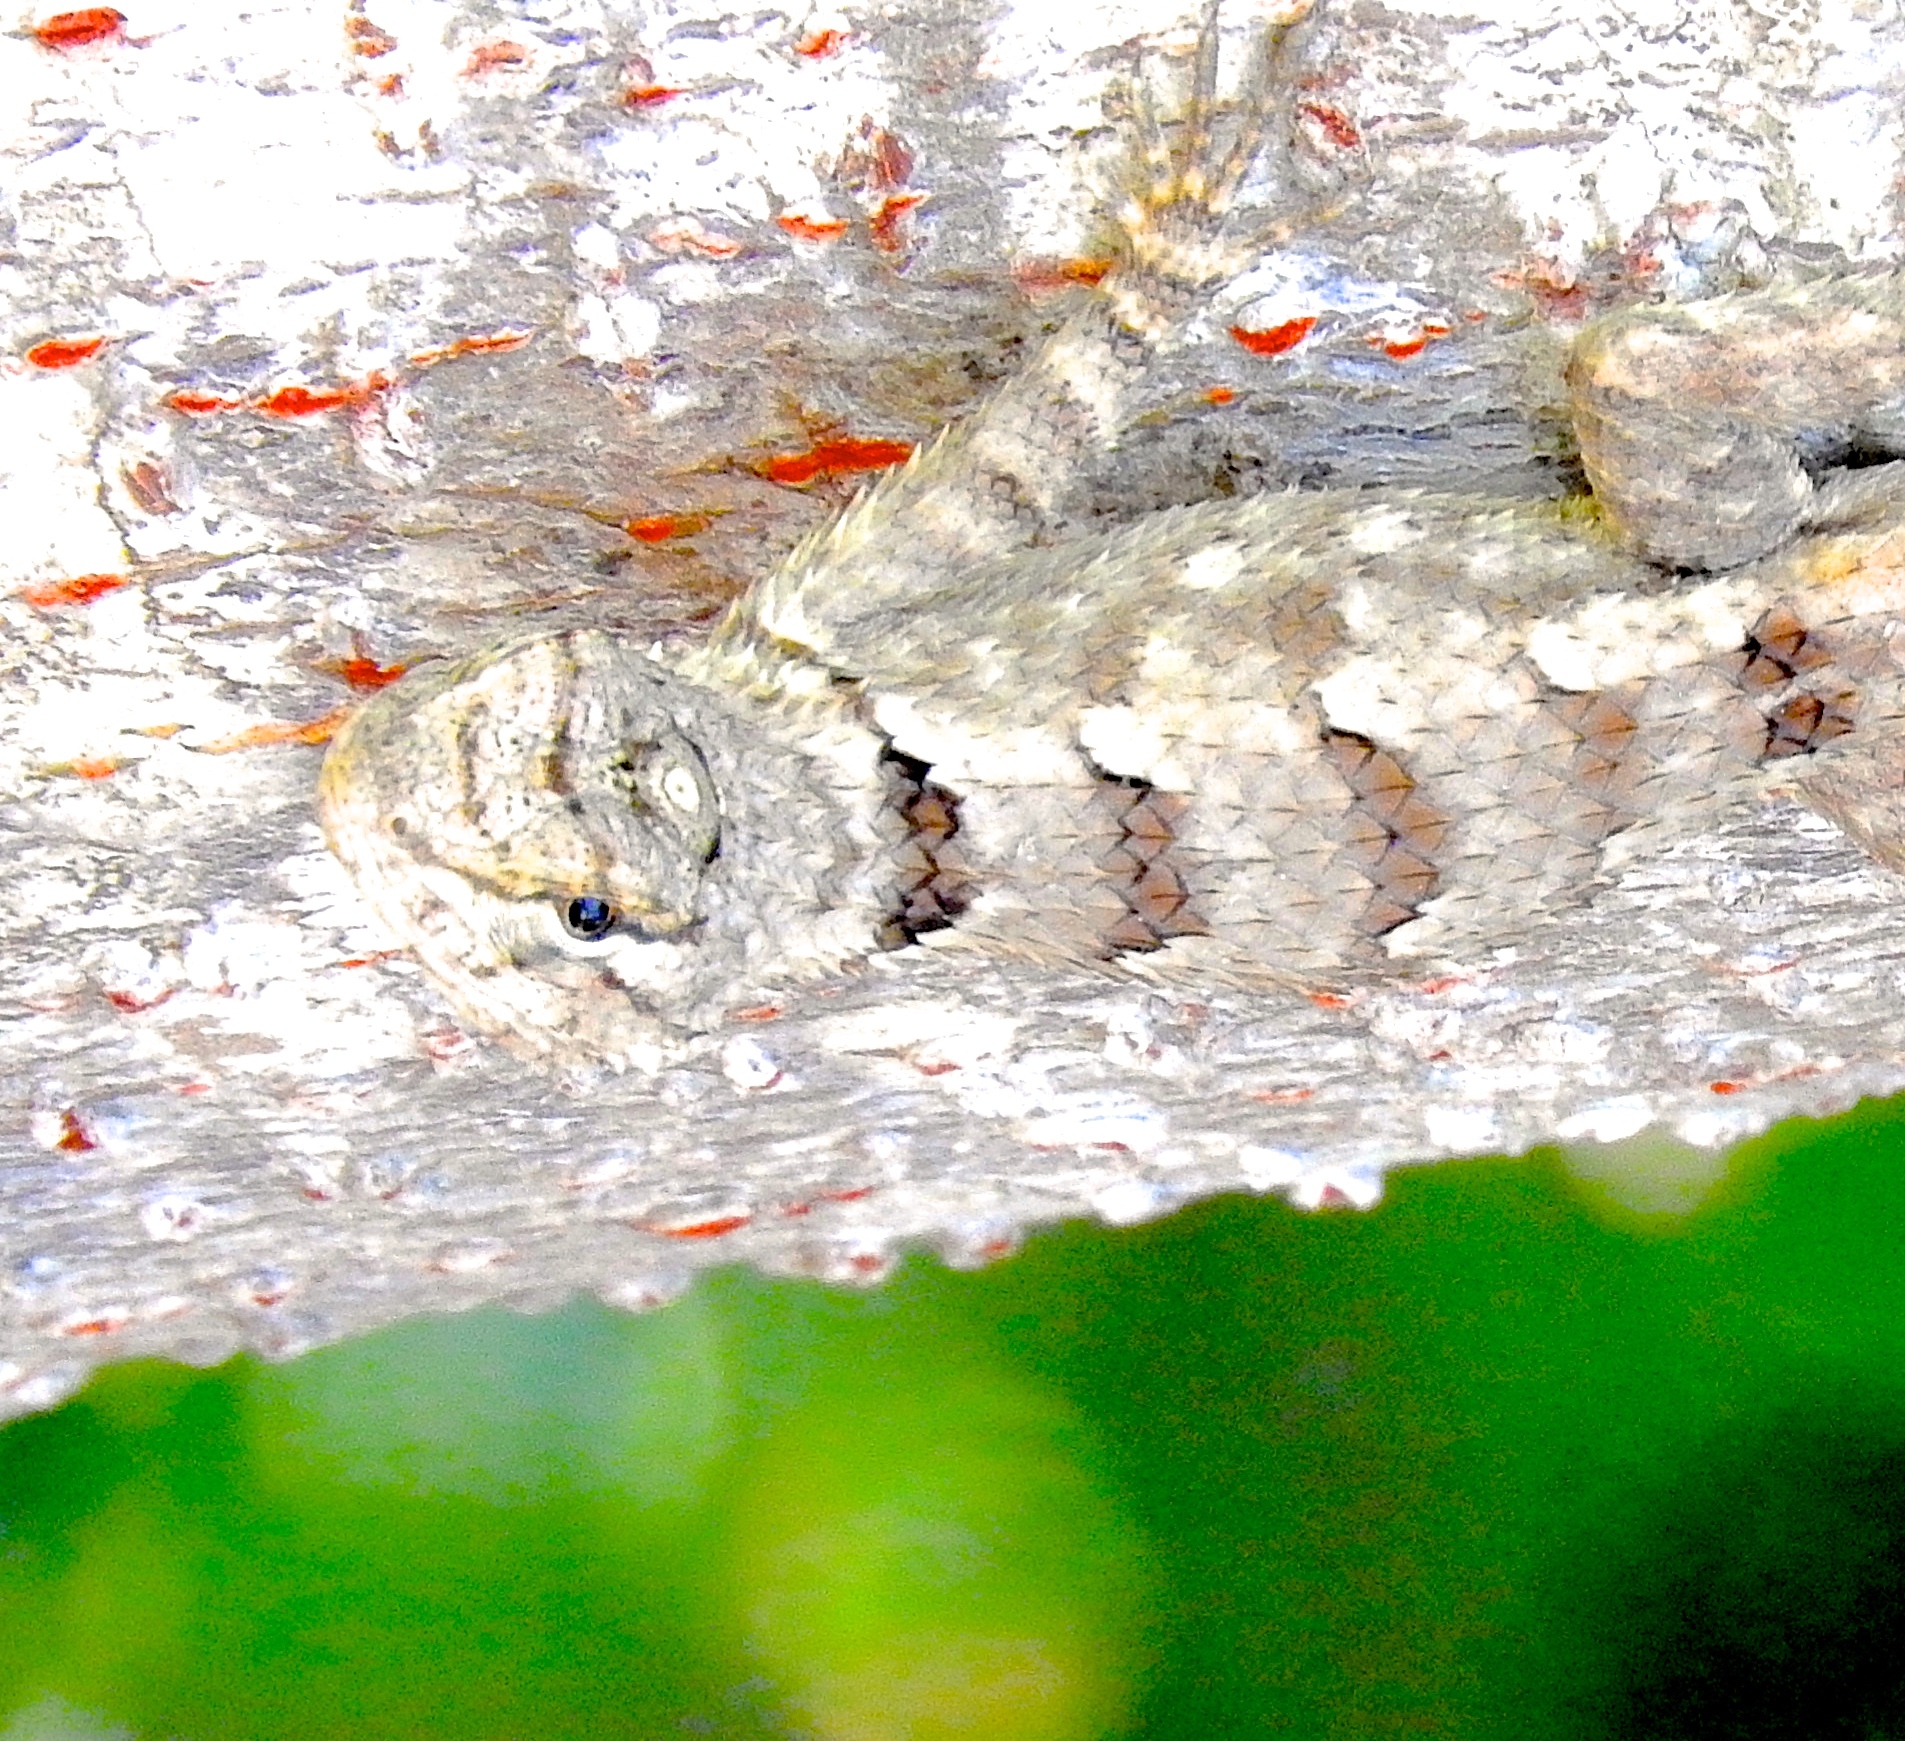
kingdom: Animalia
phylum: Chordata
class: Squamata
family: Phrynosomatidae
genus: Sceloporus
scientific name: Sceloporus clarkii
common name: Clark's spiny lizard
